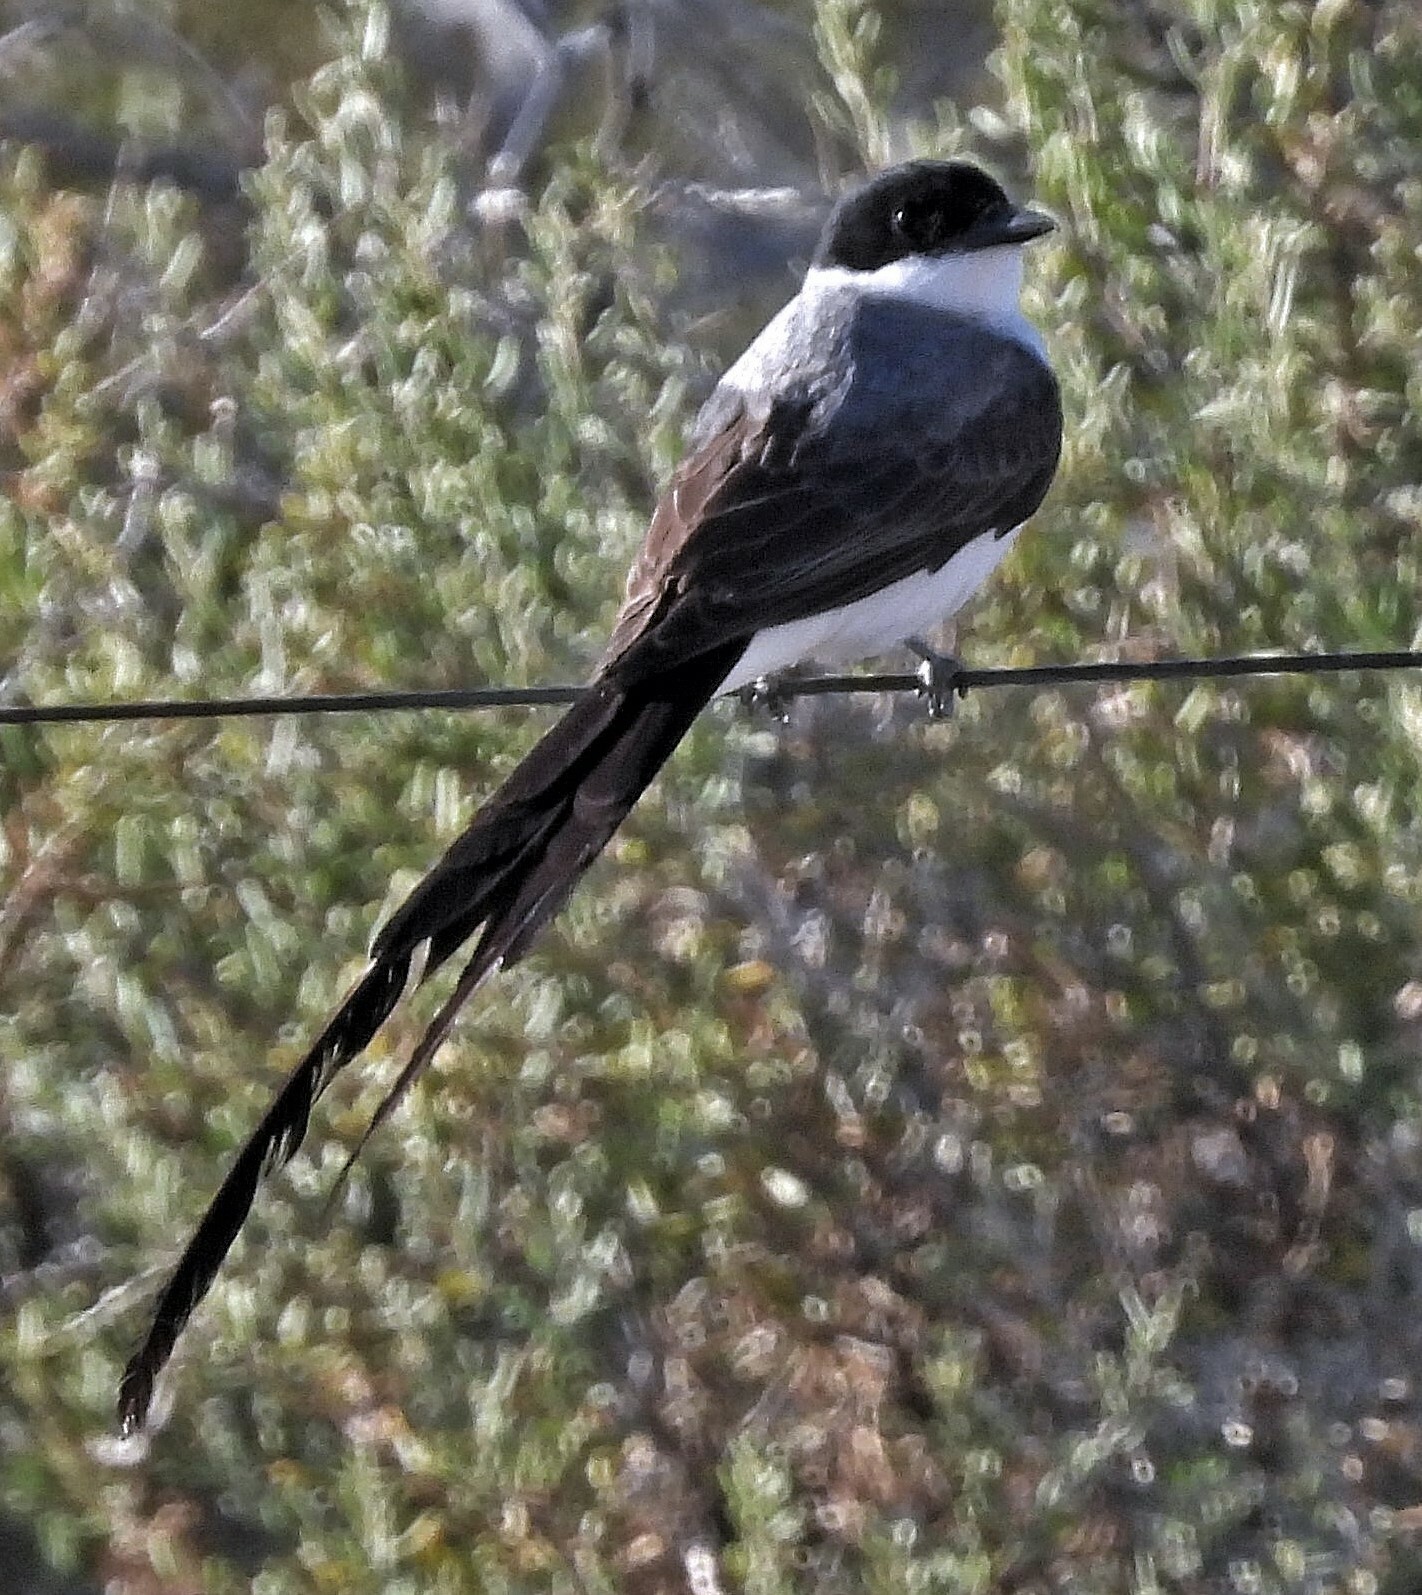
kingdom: Animalia
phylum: Chordata
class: Aves
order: Passeriformes
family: Tyrannidae
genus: Tyrannus
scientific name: Tyrannus savana
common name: Fork-tailed flycatcher
